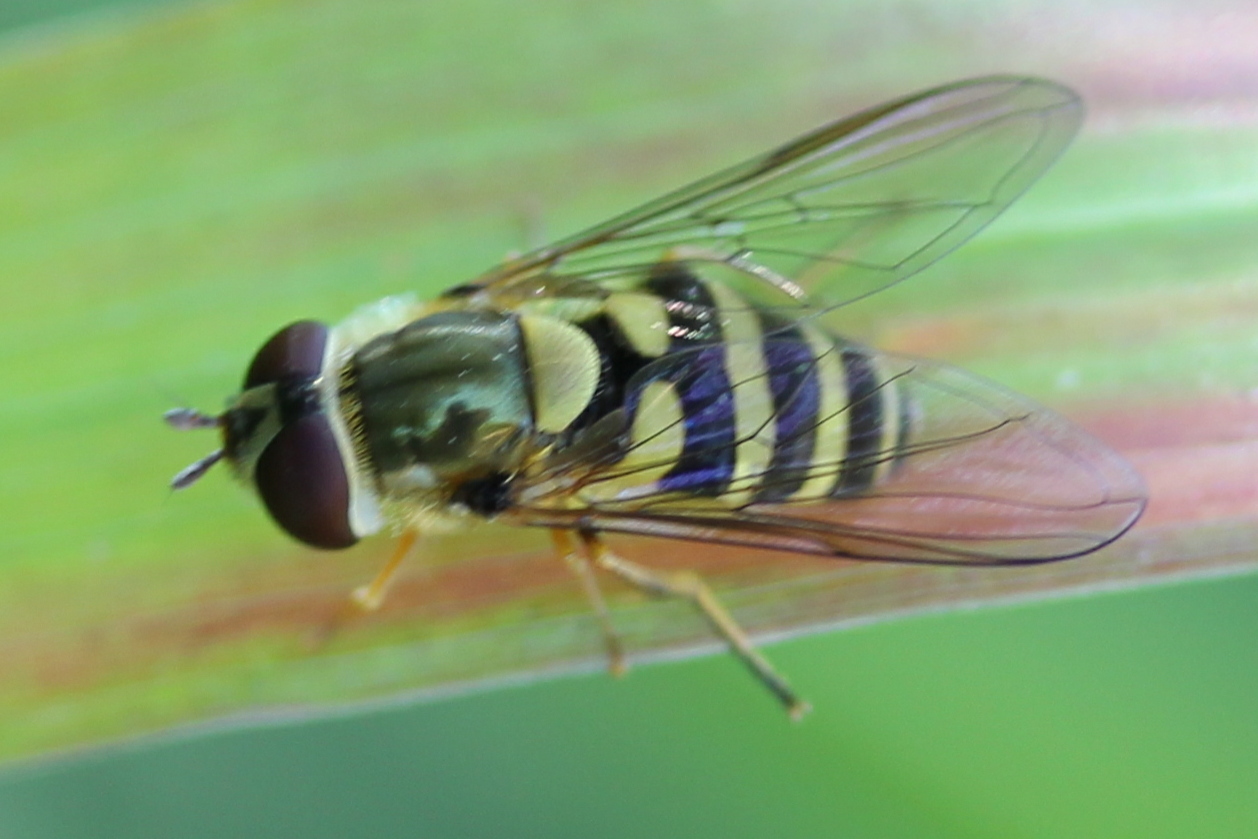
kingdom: Animalia
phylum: Arthropoda
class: Insecta
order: Diptera
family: Syrphidae
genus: Syrphus
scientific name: Syrphus
